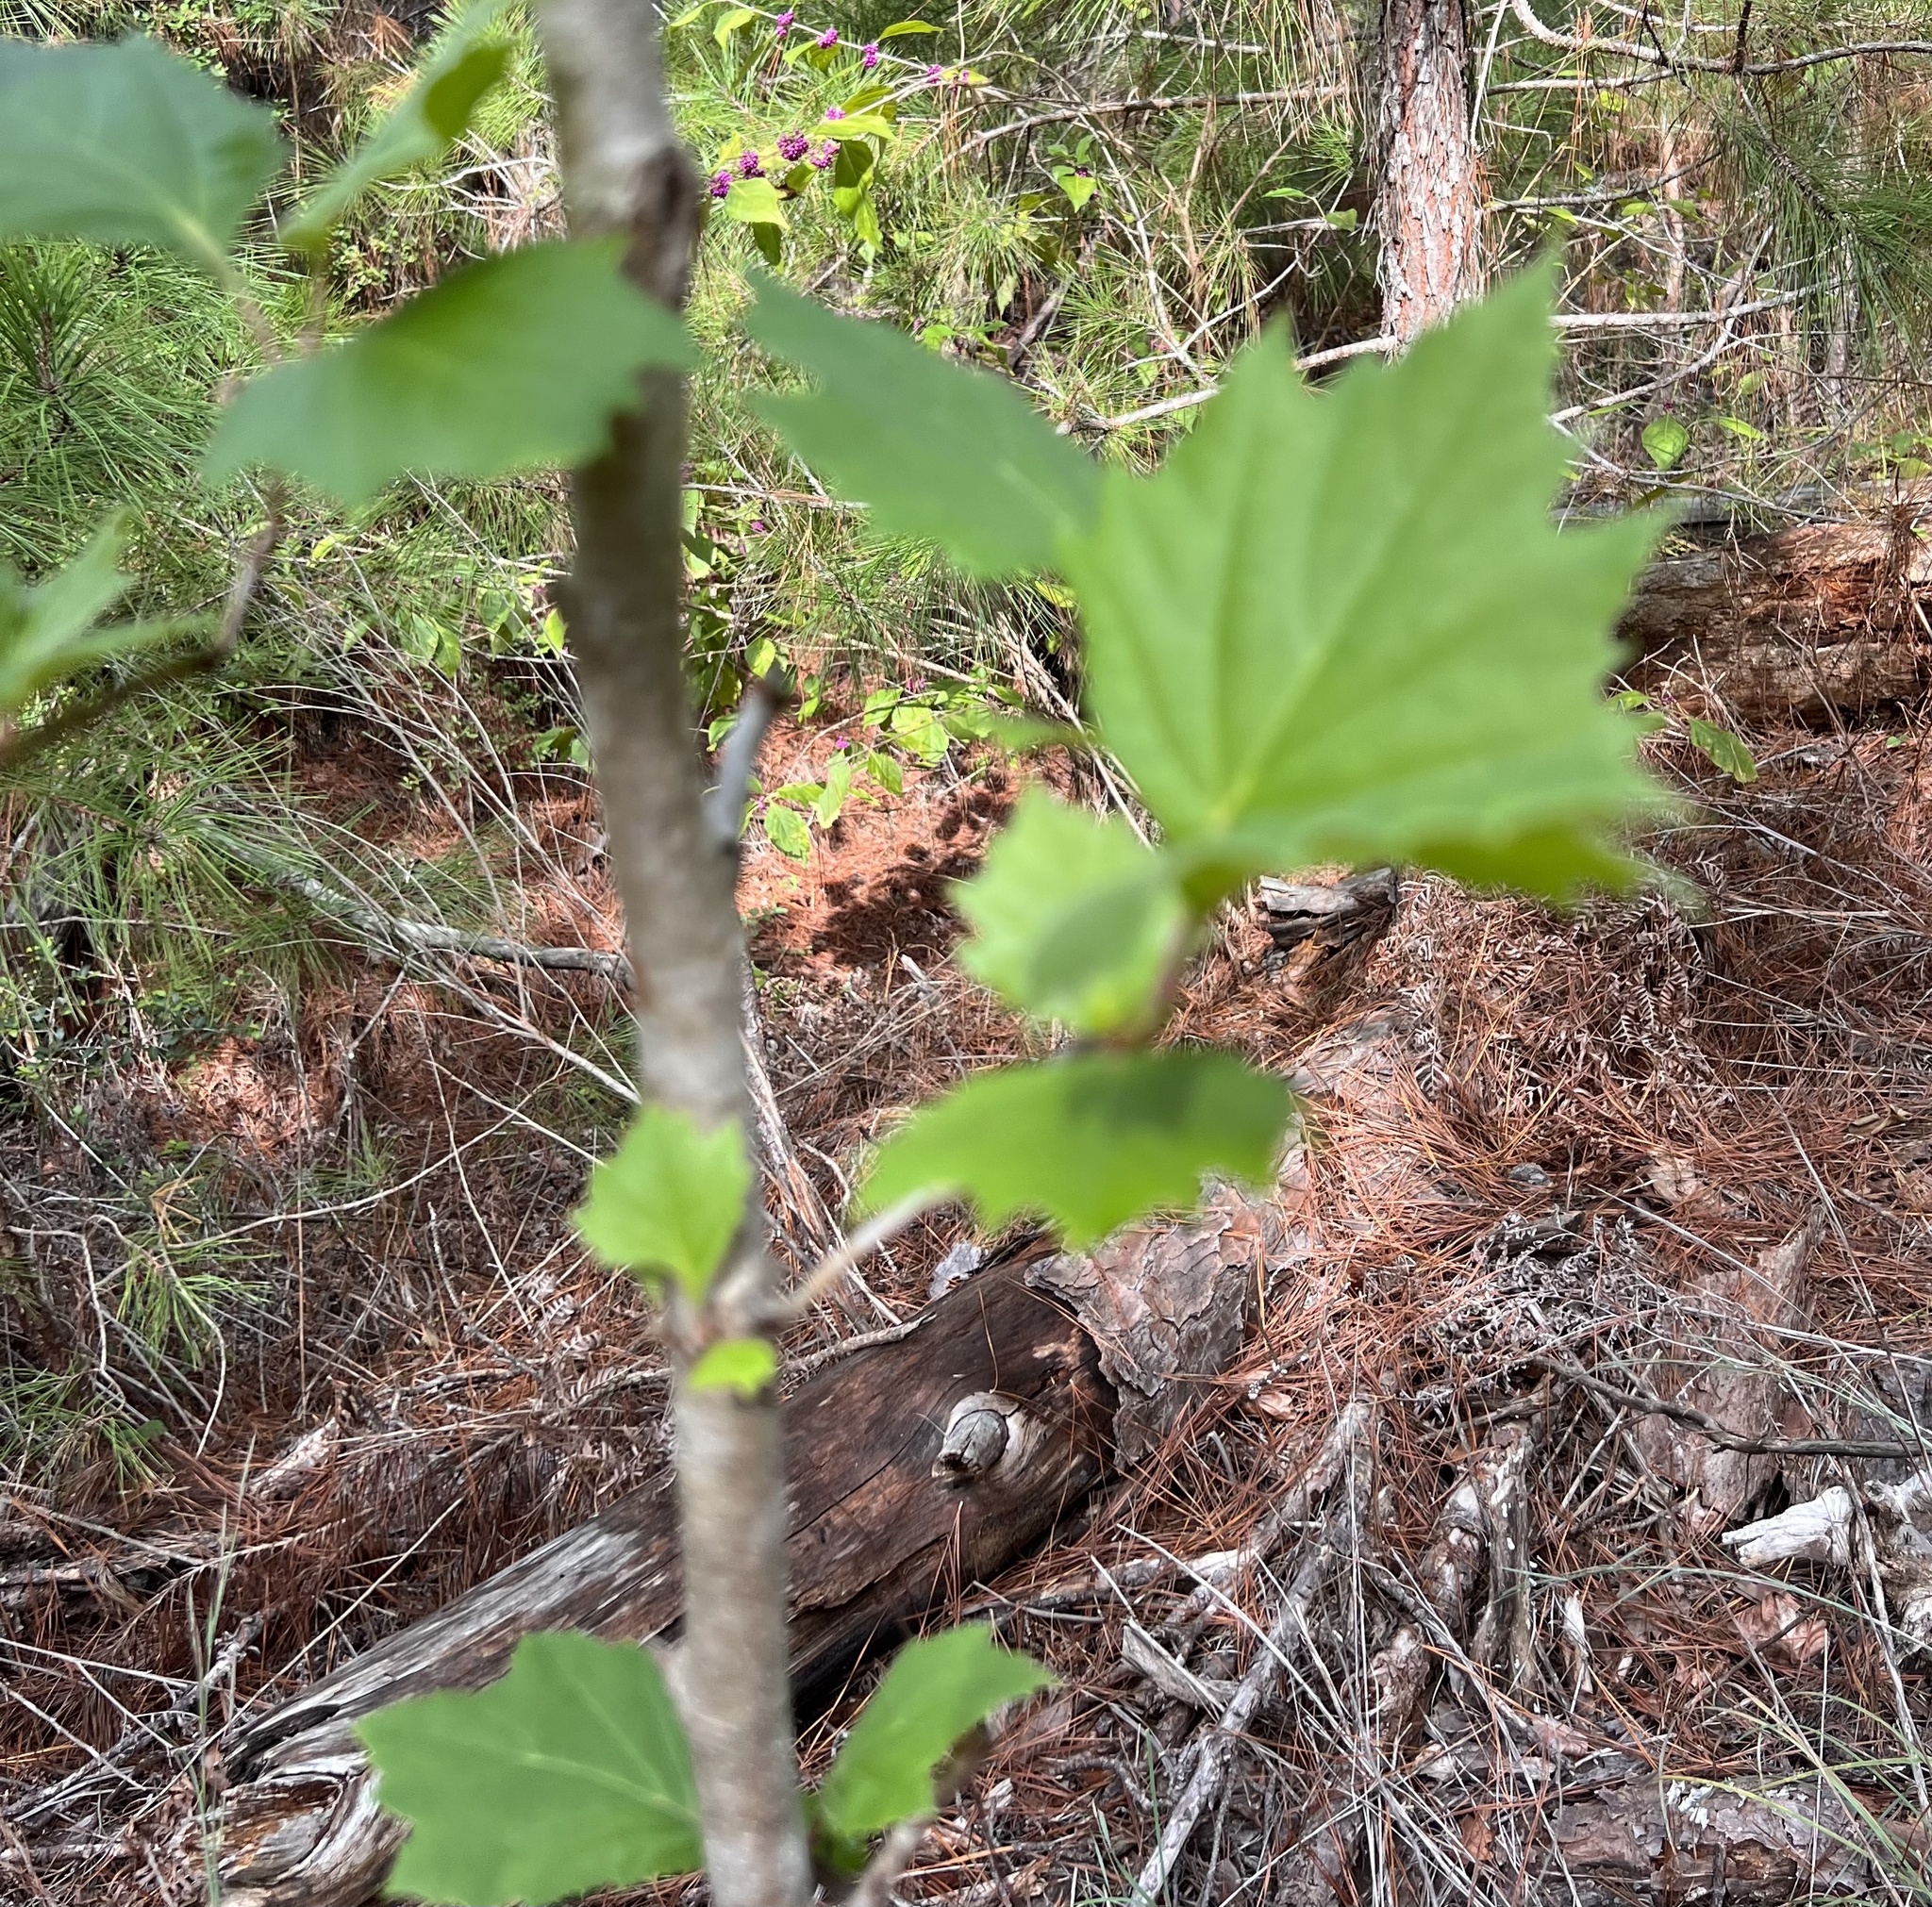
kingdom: Plantae
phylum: Tracheophyta
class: Magnoliopsida
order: Proteales
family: Platanaceae
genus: Platanus
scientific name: Platanus occidentalis
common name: American sycamore
